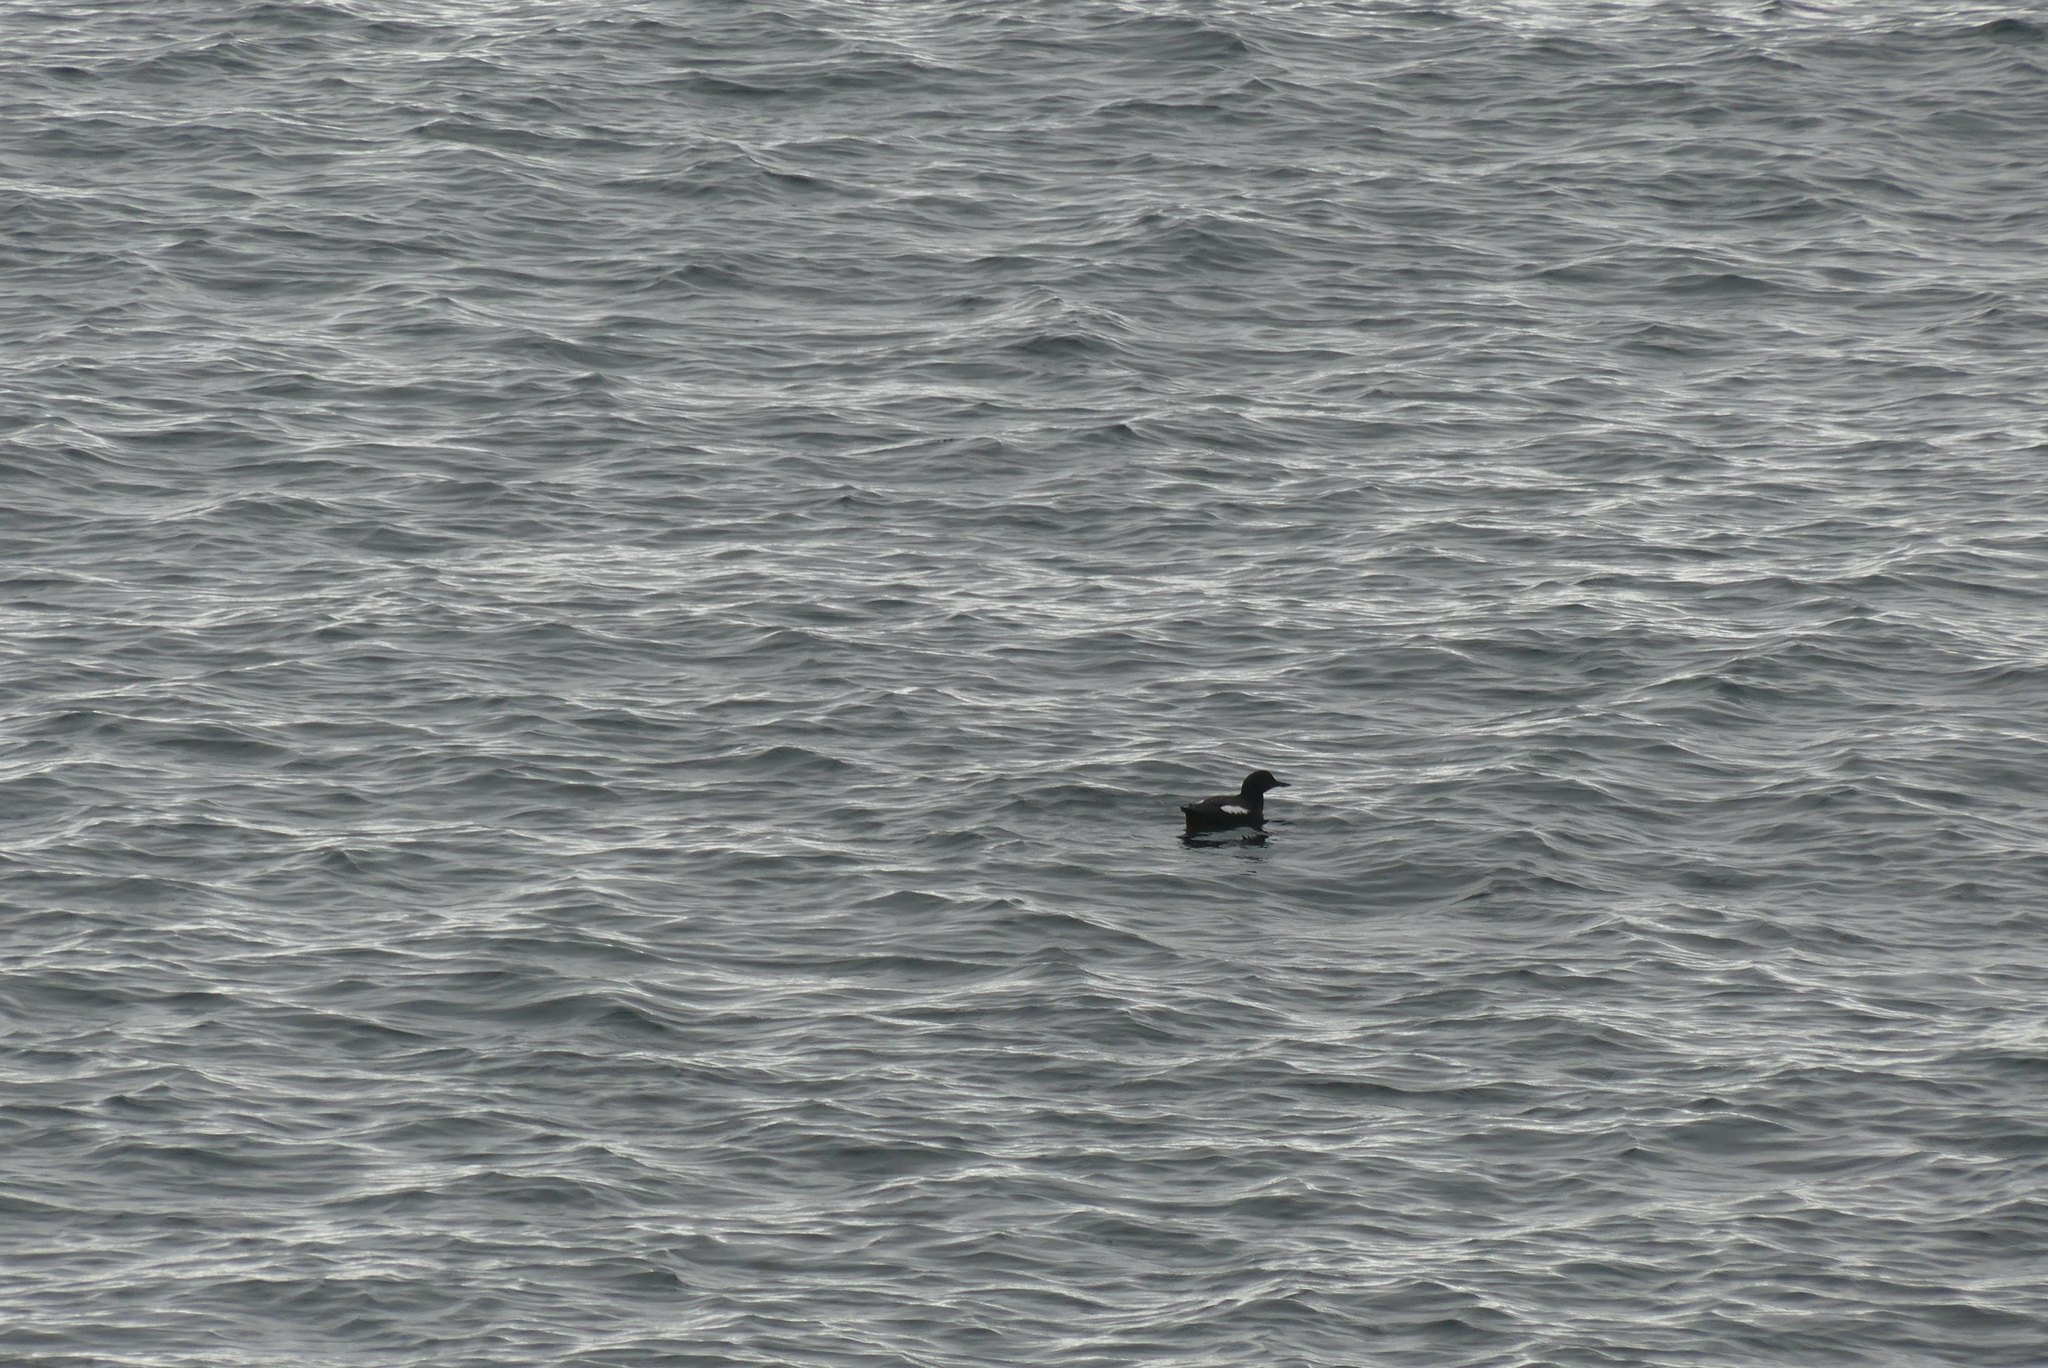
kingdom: Animalia
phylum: Chordata
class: Aves
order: Charadriiformes
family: Alcidae
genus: Cepphus
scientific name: Cepphus columba
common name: Pigeon guillemot
